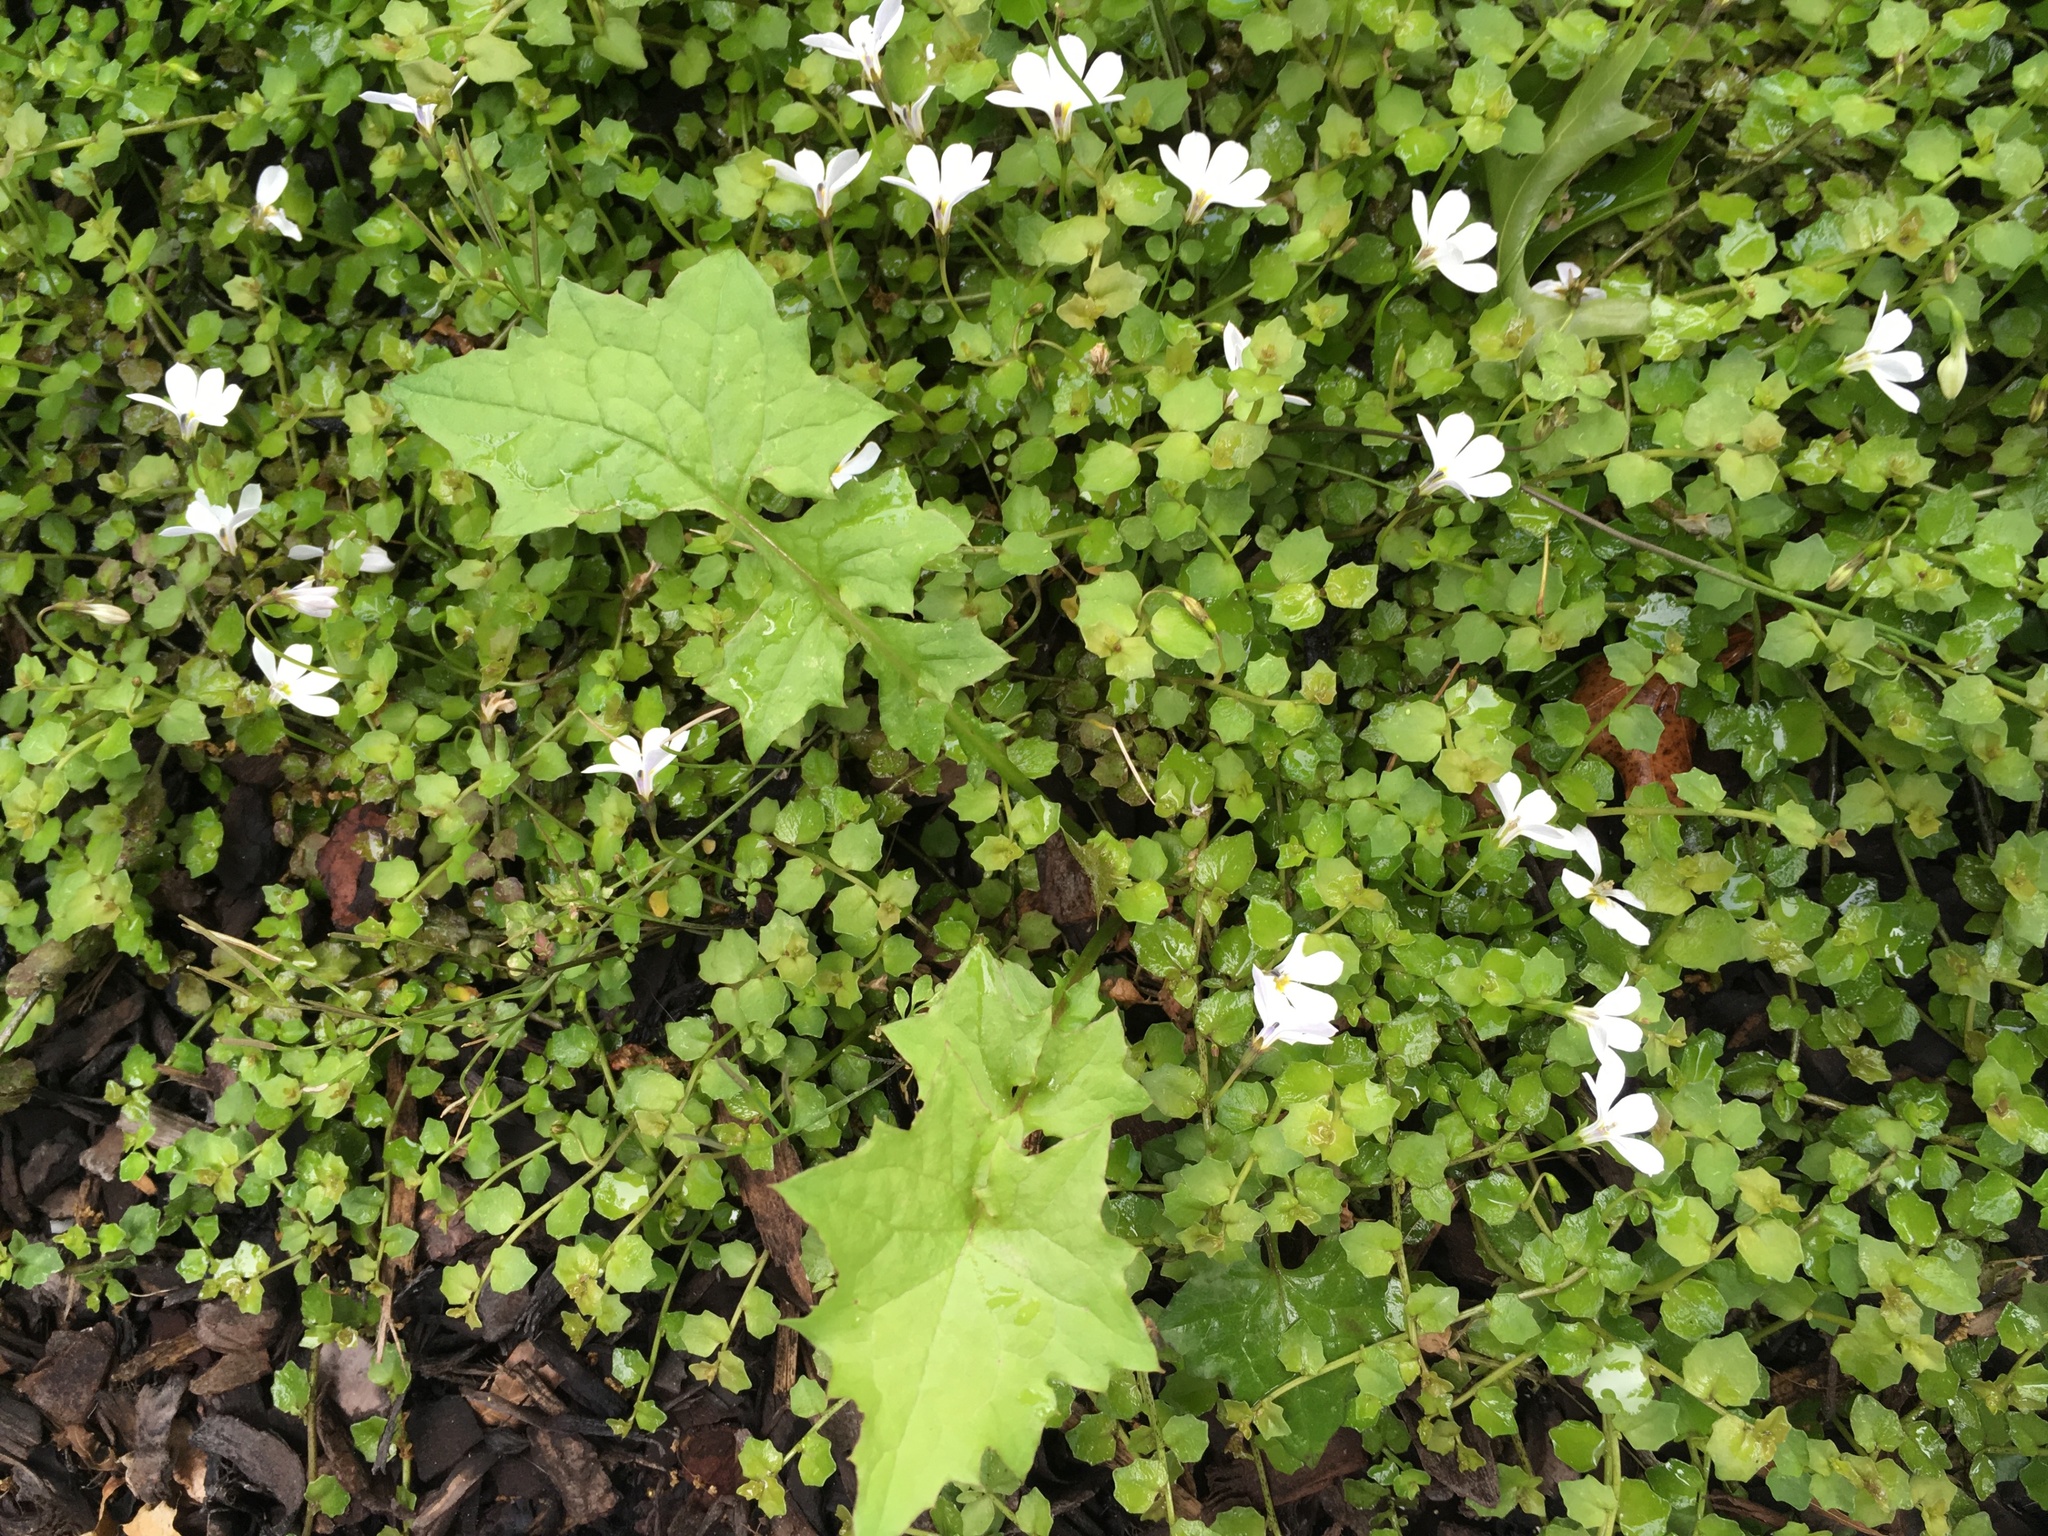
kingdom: Plantae
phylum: Tracheophyta
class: Magnoliopsida
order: Asterales
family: Asteraceae
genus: Mycelis
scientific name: Mycelis muralis
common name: Wall lettuce
